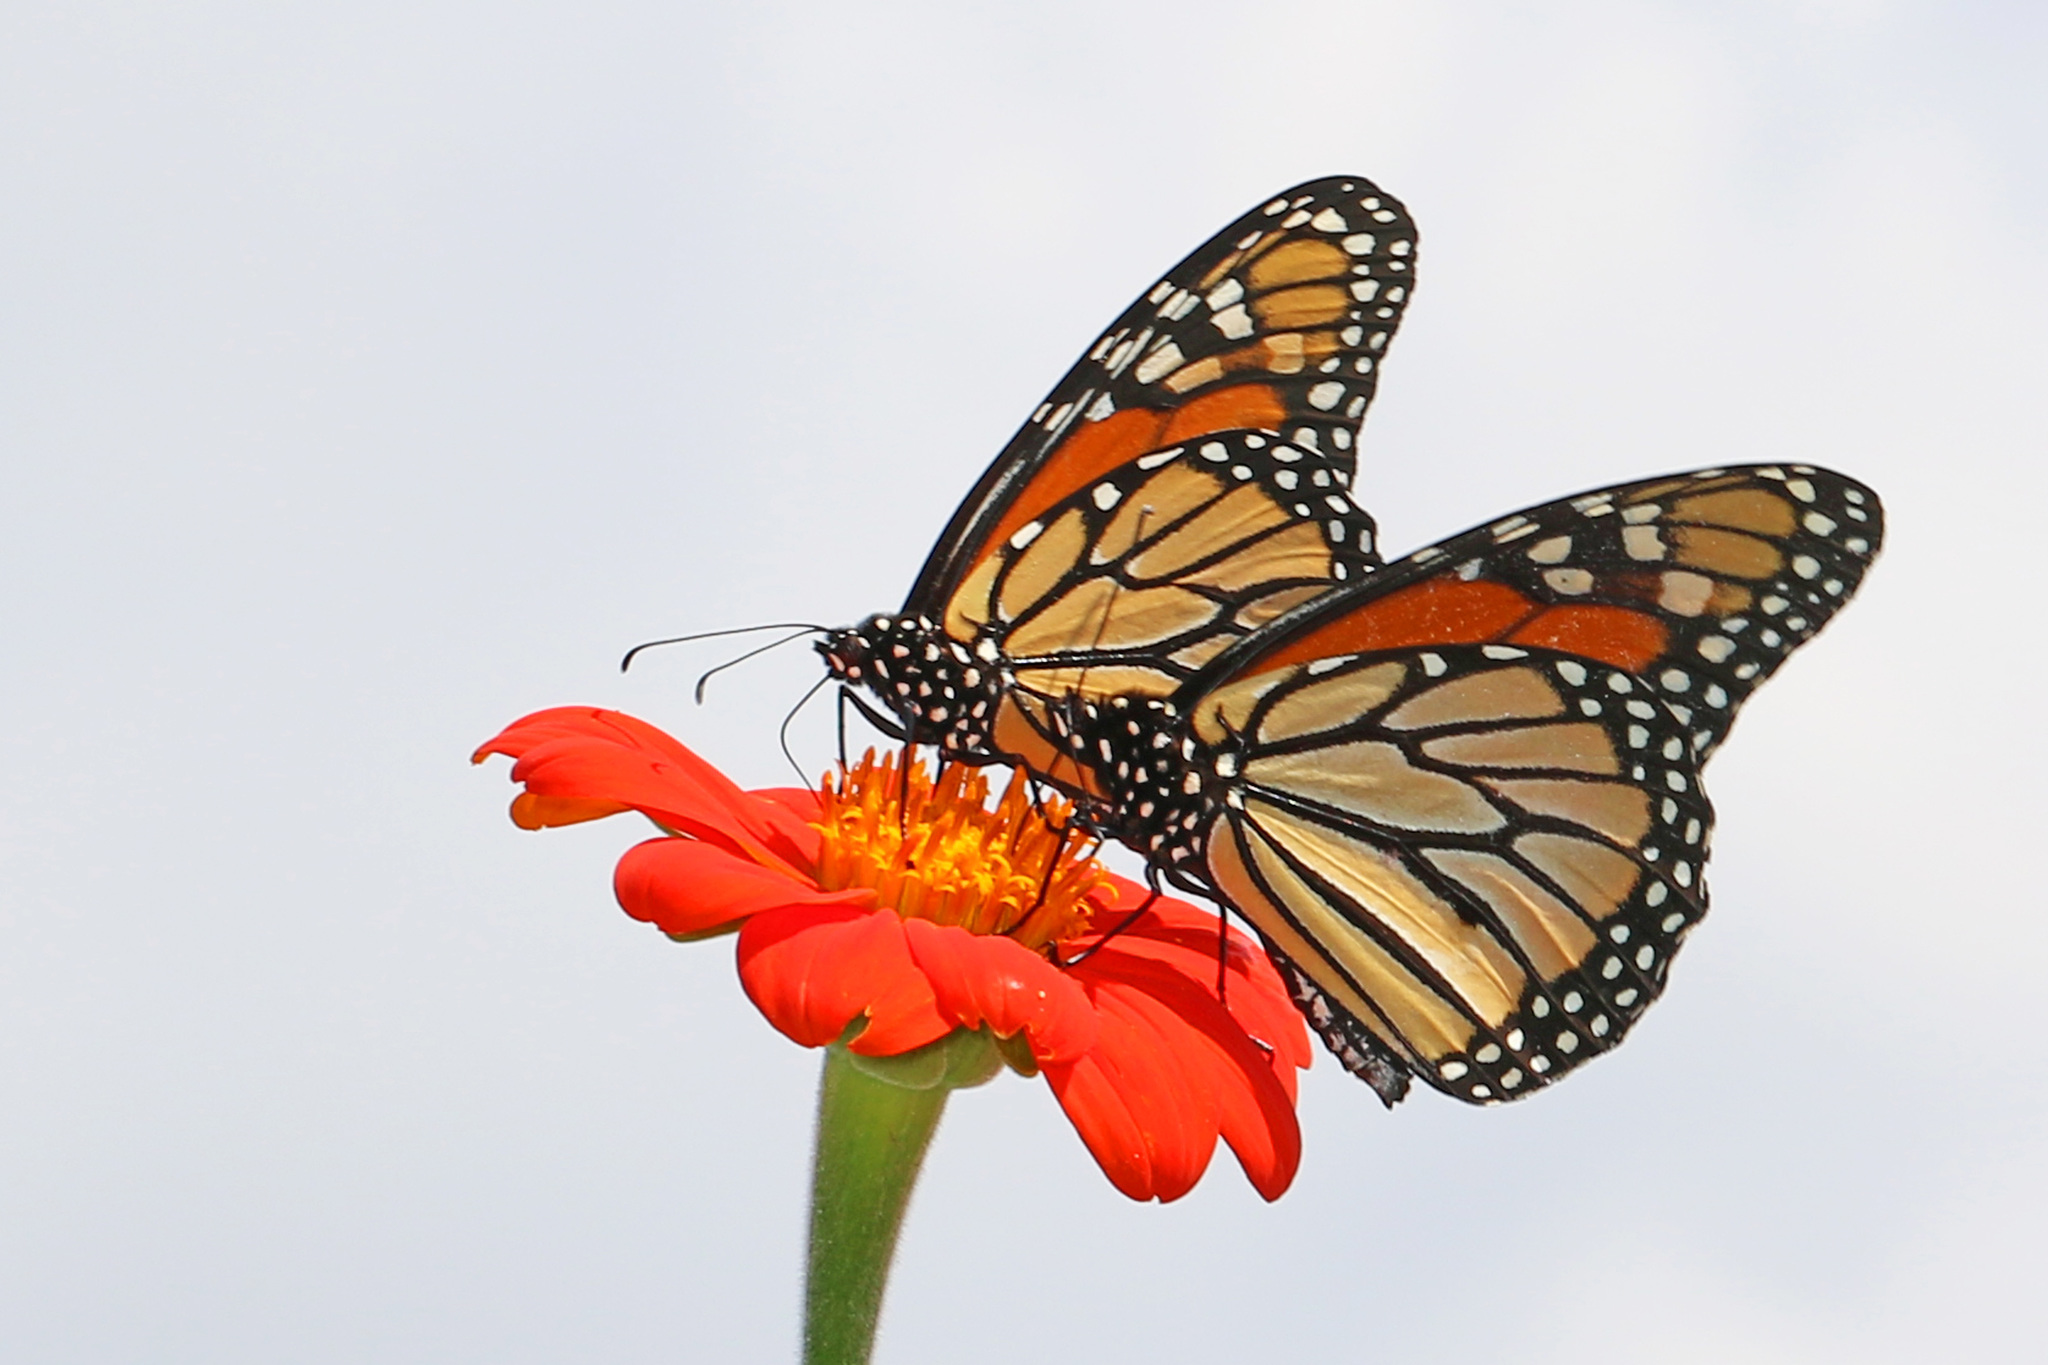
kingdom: Animalia
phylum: Arthropoda
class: Insecta
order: Lepidoptera
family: Nymphalidae
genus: Danaus
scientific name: Danaus plexippus
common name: Monarch
